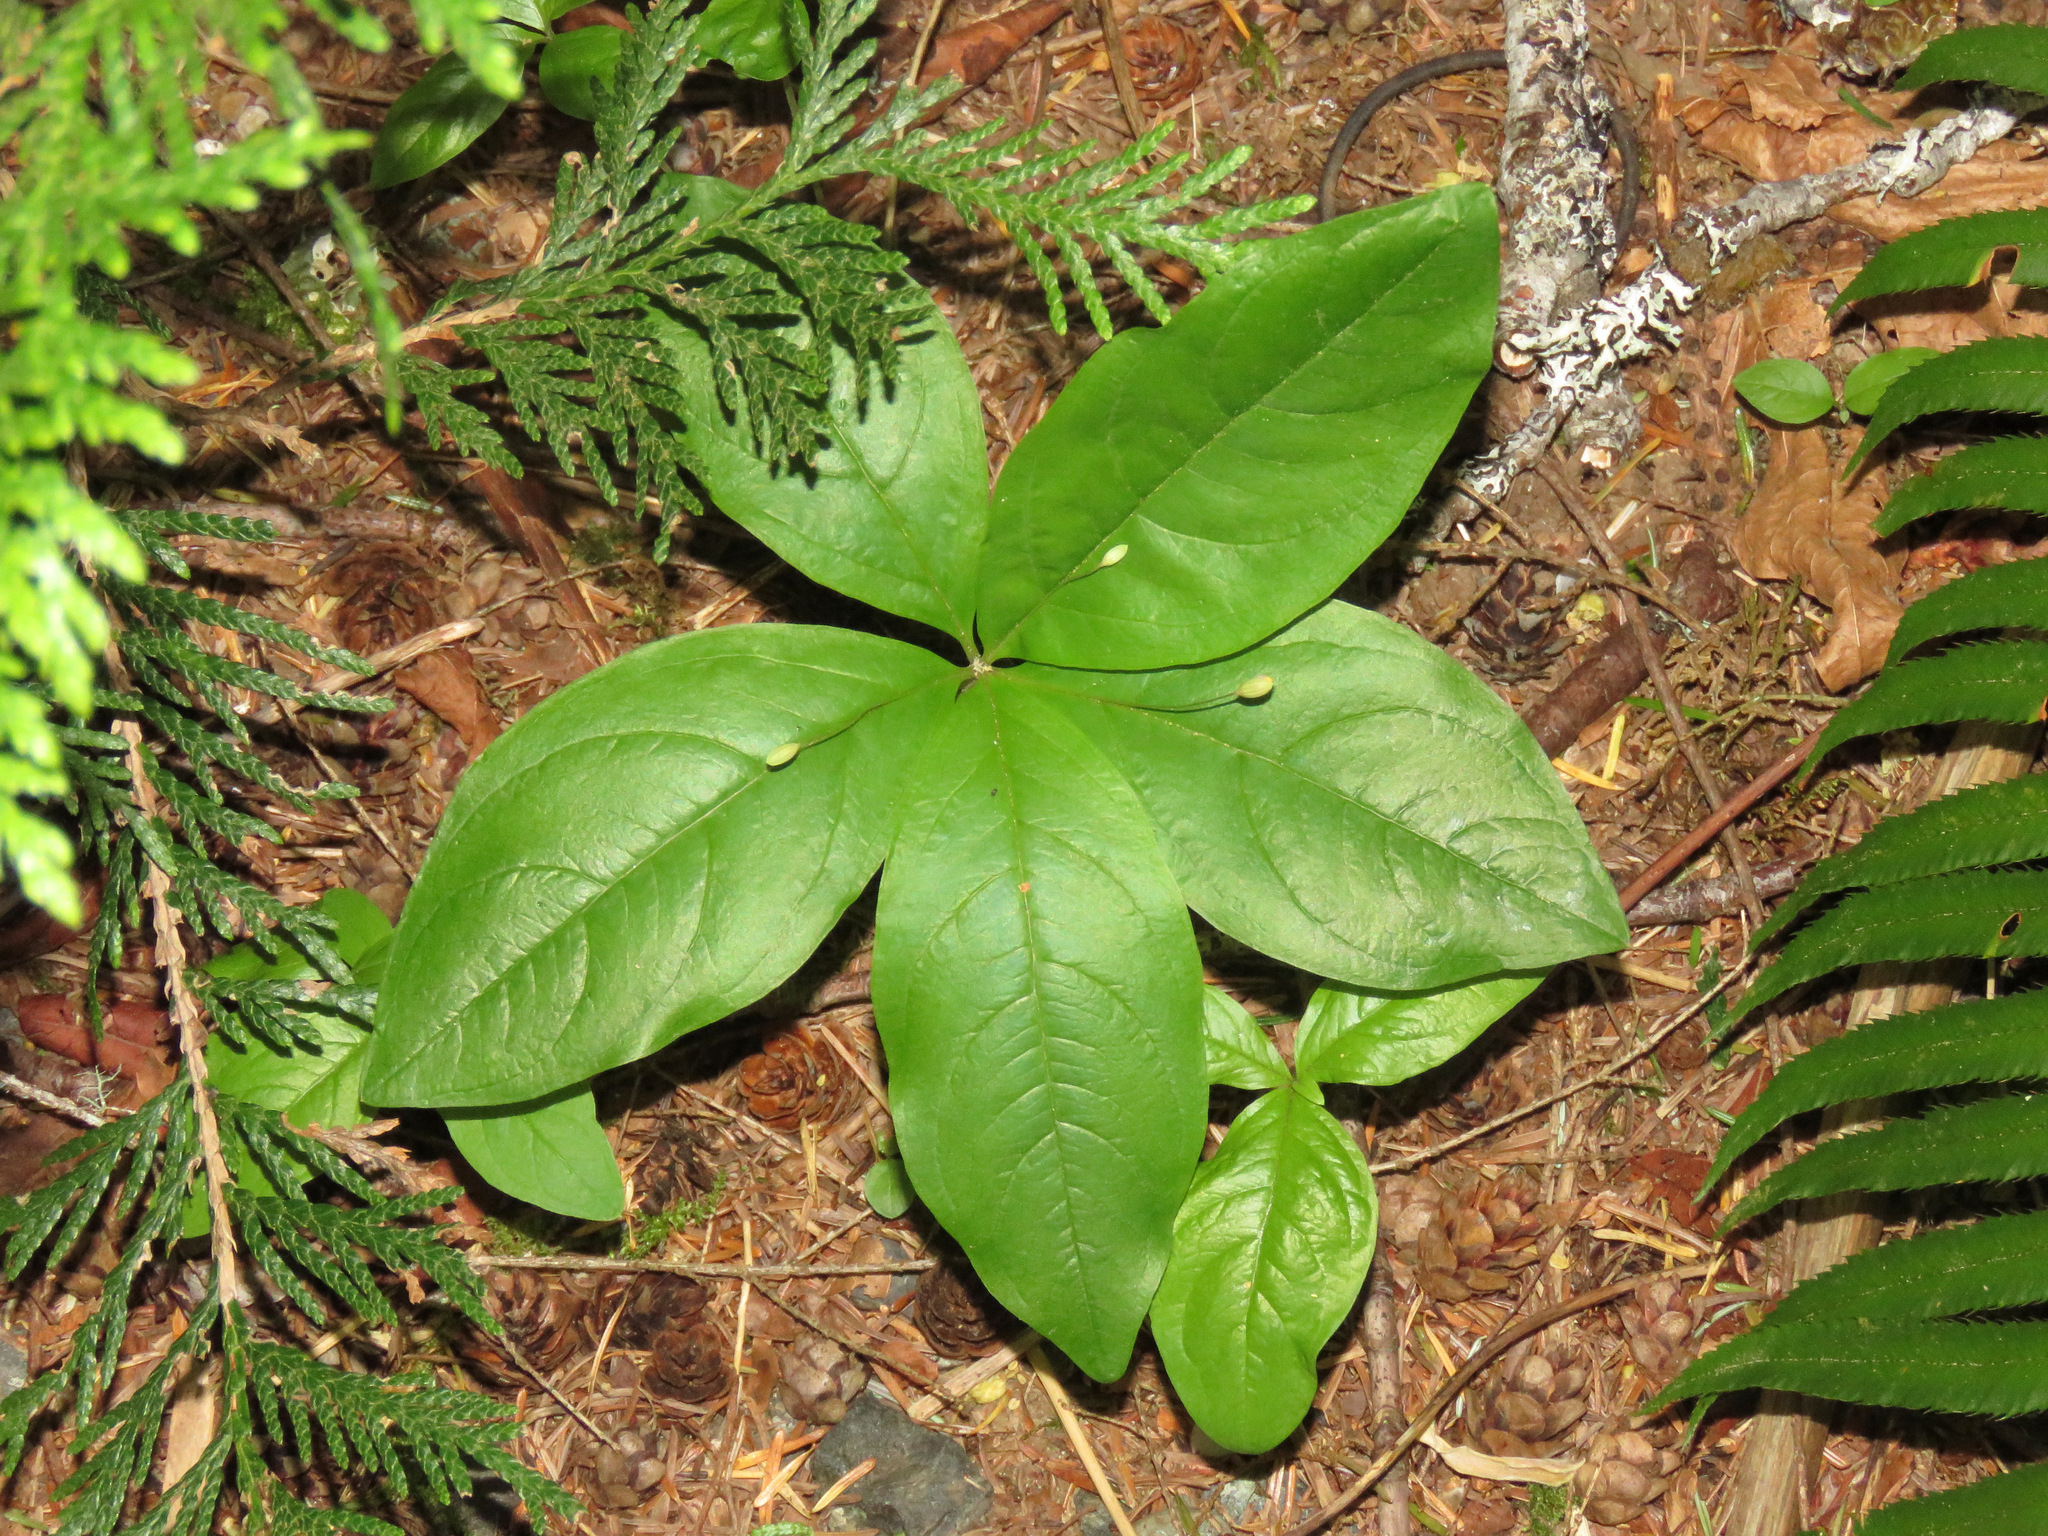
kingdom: Plantae
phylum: Tracheophyta
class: Magnoliopsida
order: Ericales
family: Primulaceae
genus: Lysimachia
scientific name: Lysimachia latifolia
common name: Pacific starflower
